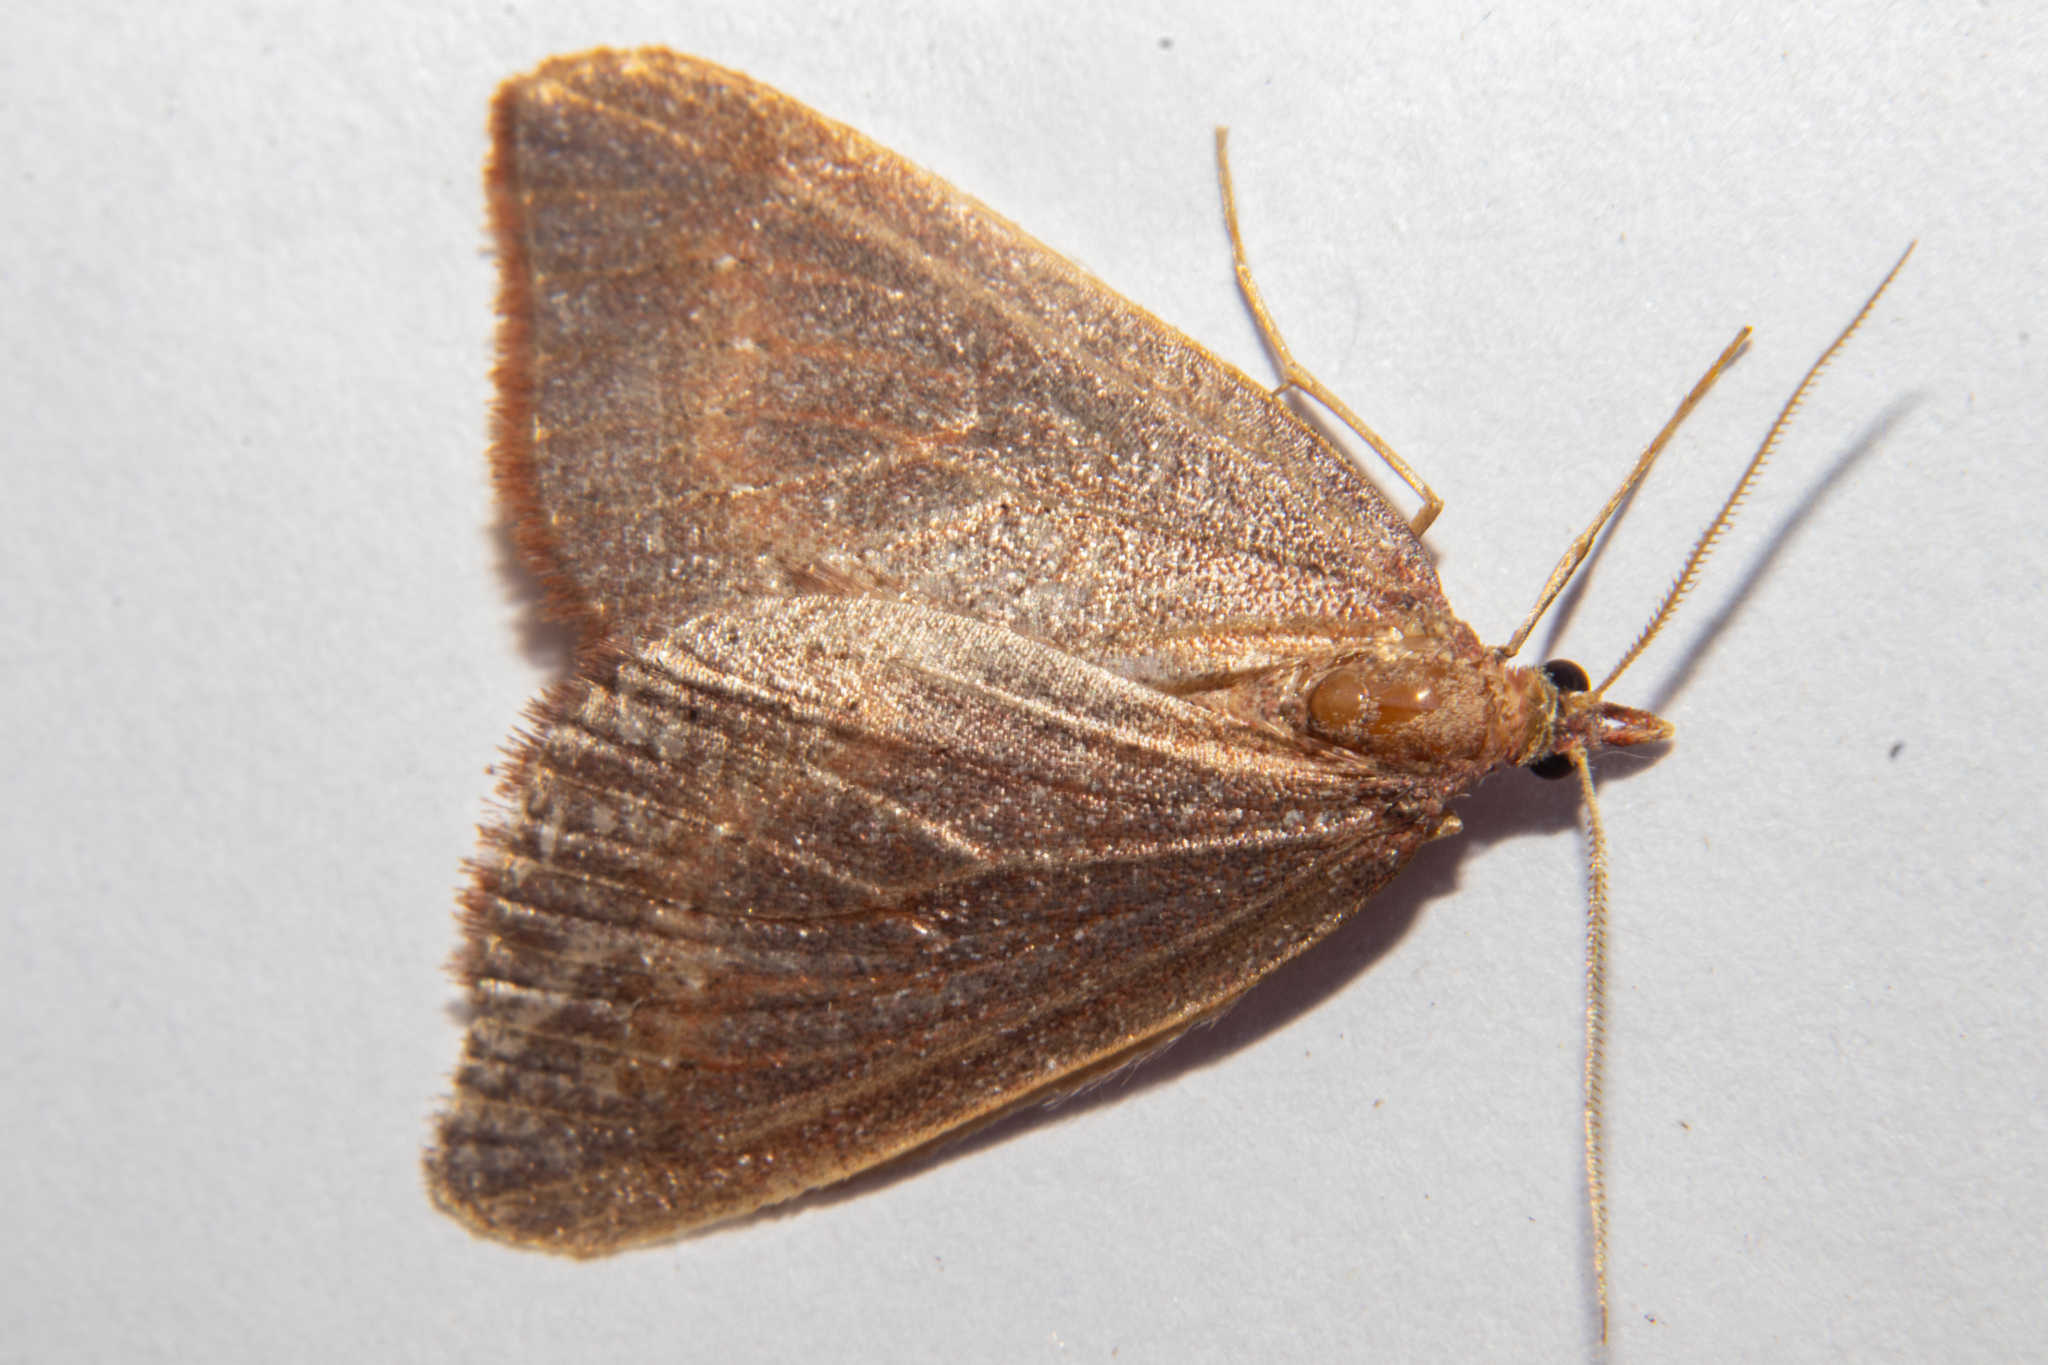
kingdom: Animalia
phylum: Arthropoda
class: Insecta
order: Lepidoptera
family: Geometridae
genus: Xanthorhoe
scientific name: Xanthorhoe occulta
